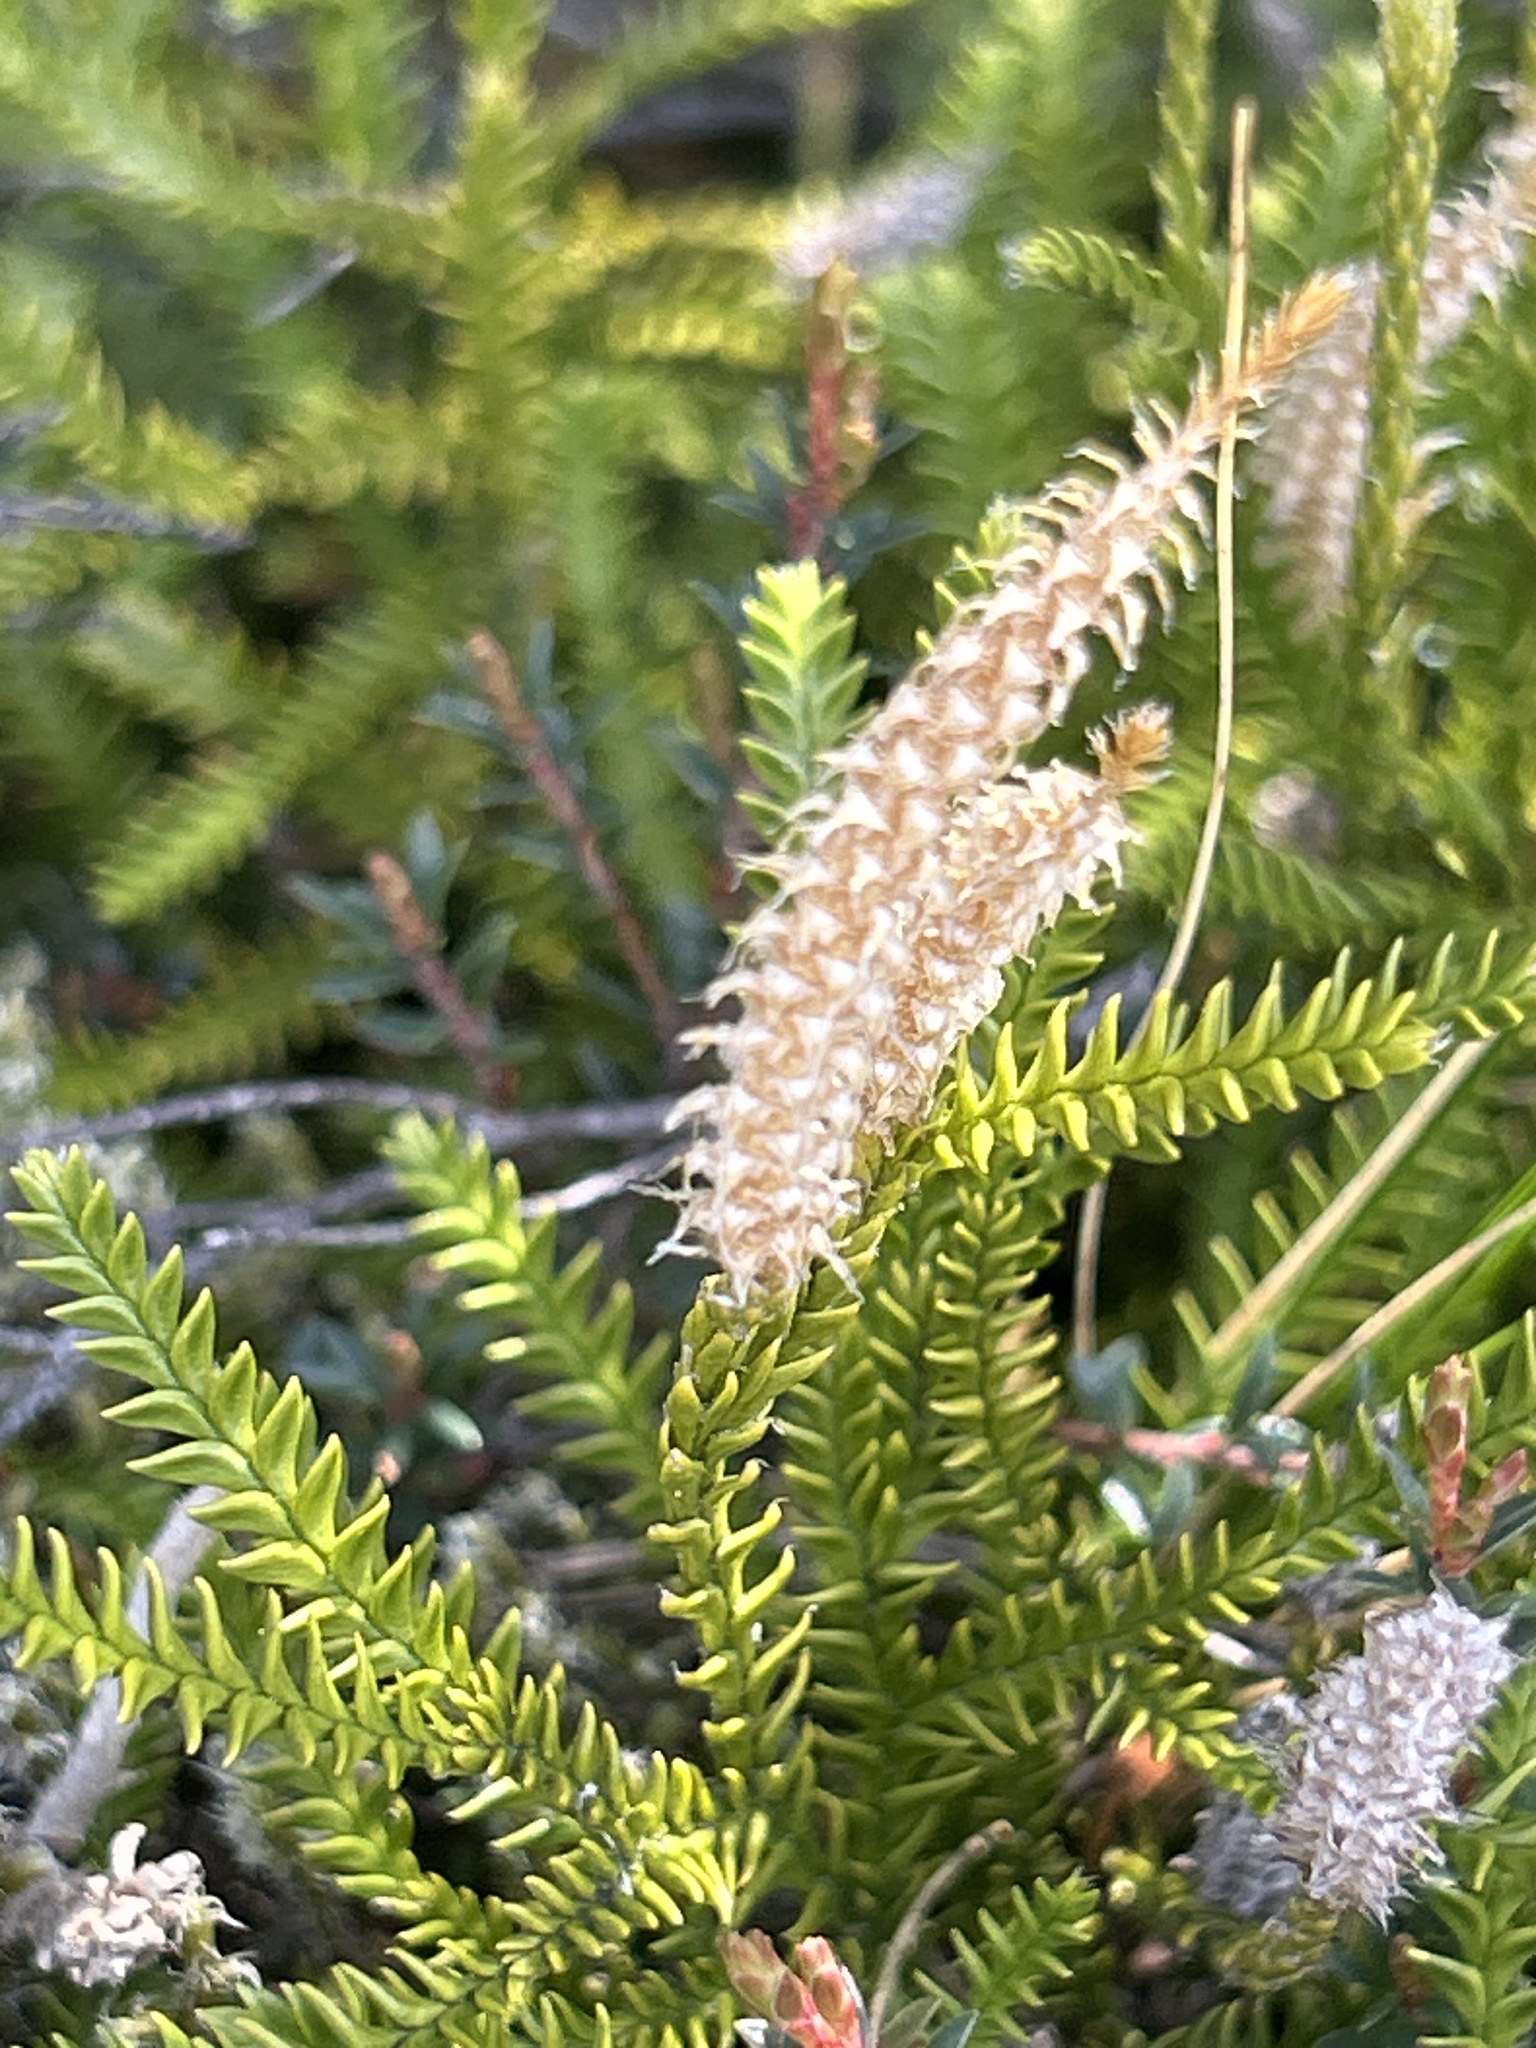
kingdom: Plantae
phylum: Tracheophyta
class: Lycopodiopsida
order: Lycopodiales
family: Lycopodiaceae
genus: Diphasium
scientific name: Diphasium scariosum
